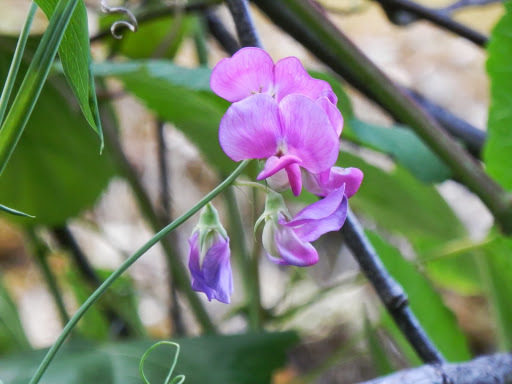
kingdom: Plantae
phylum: Tracheophyta
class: Magnoliopsida
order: Fabales
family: Fabaceae
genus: Lathyrus
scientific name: Lathyrus latifolius
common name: Perennial pea
